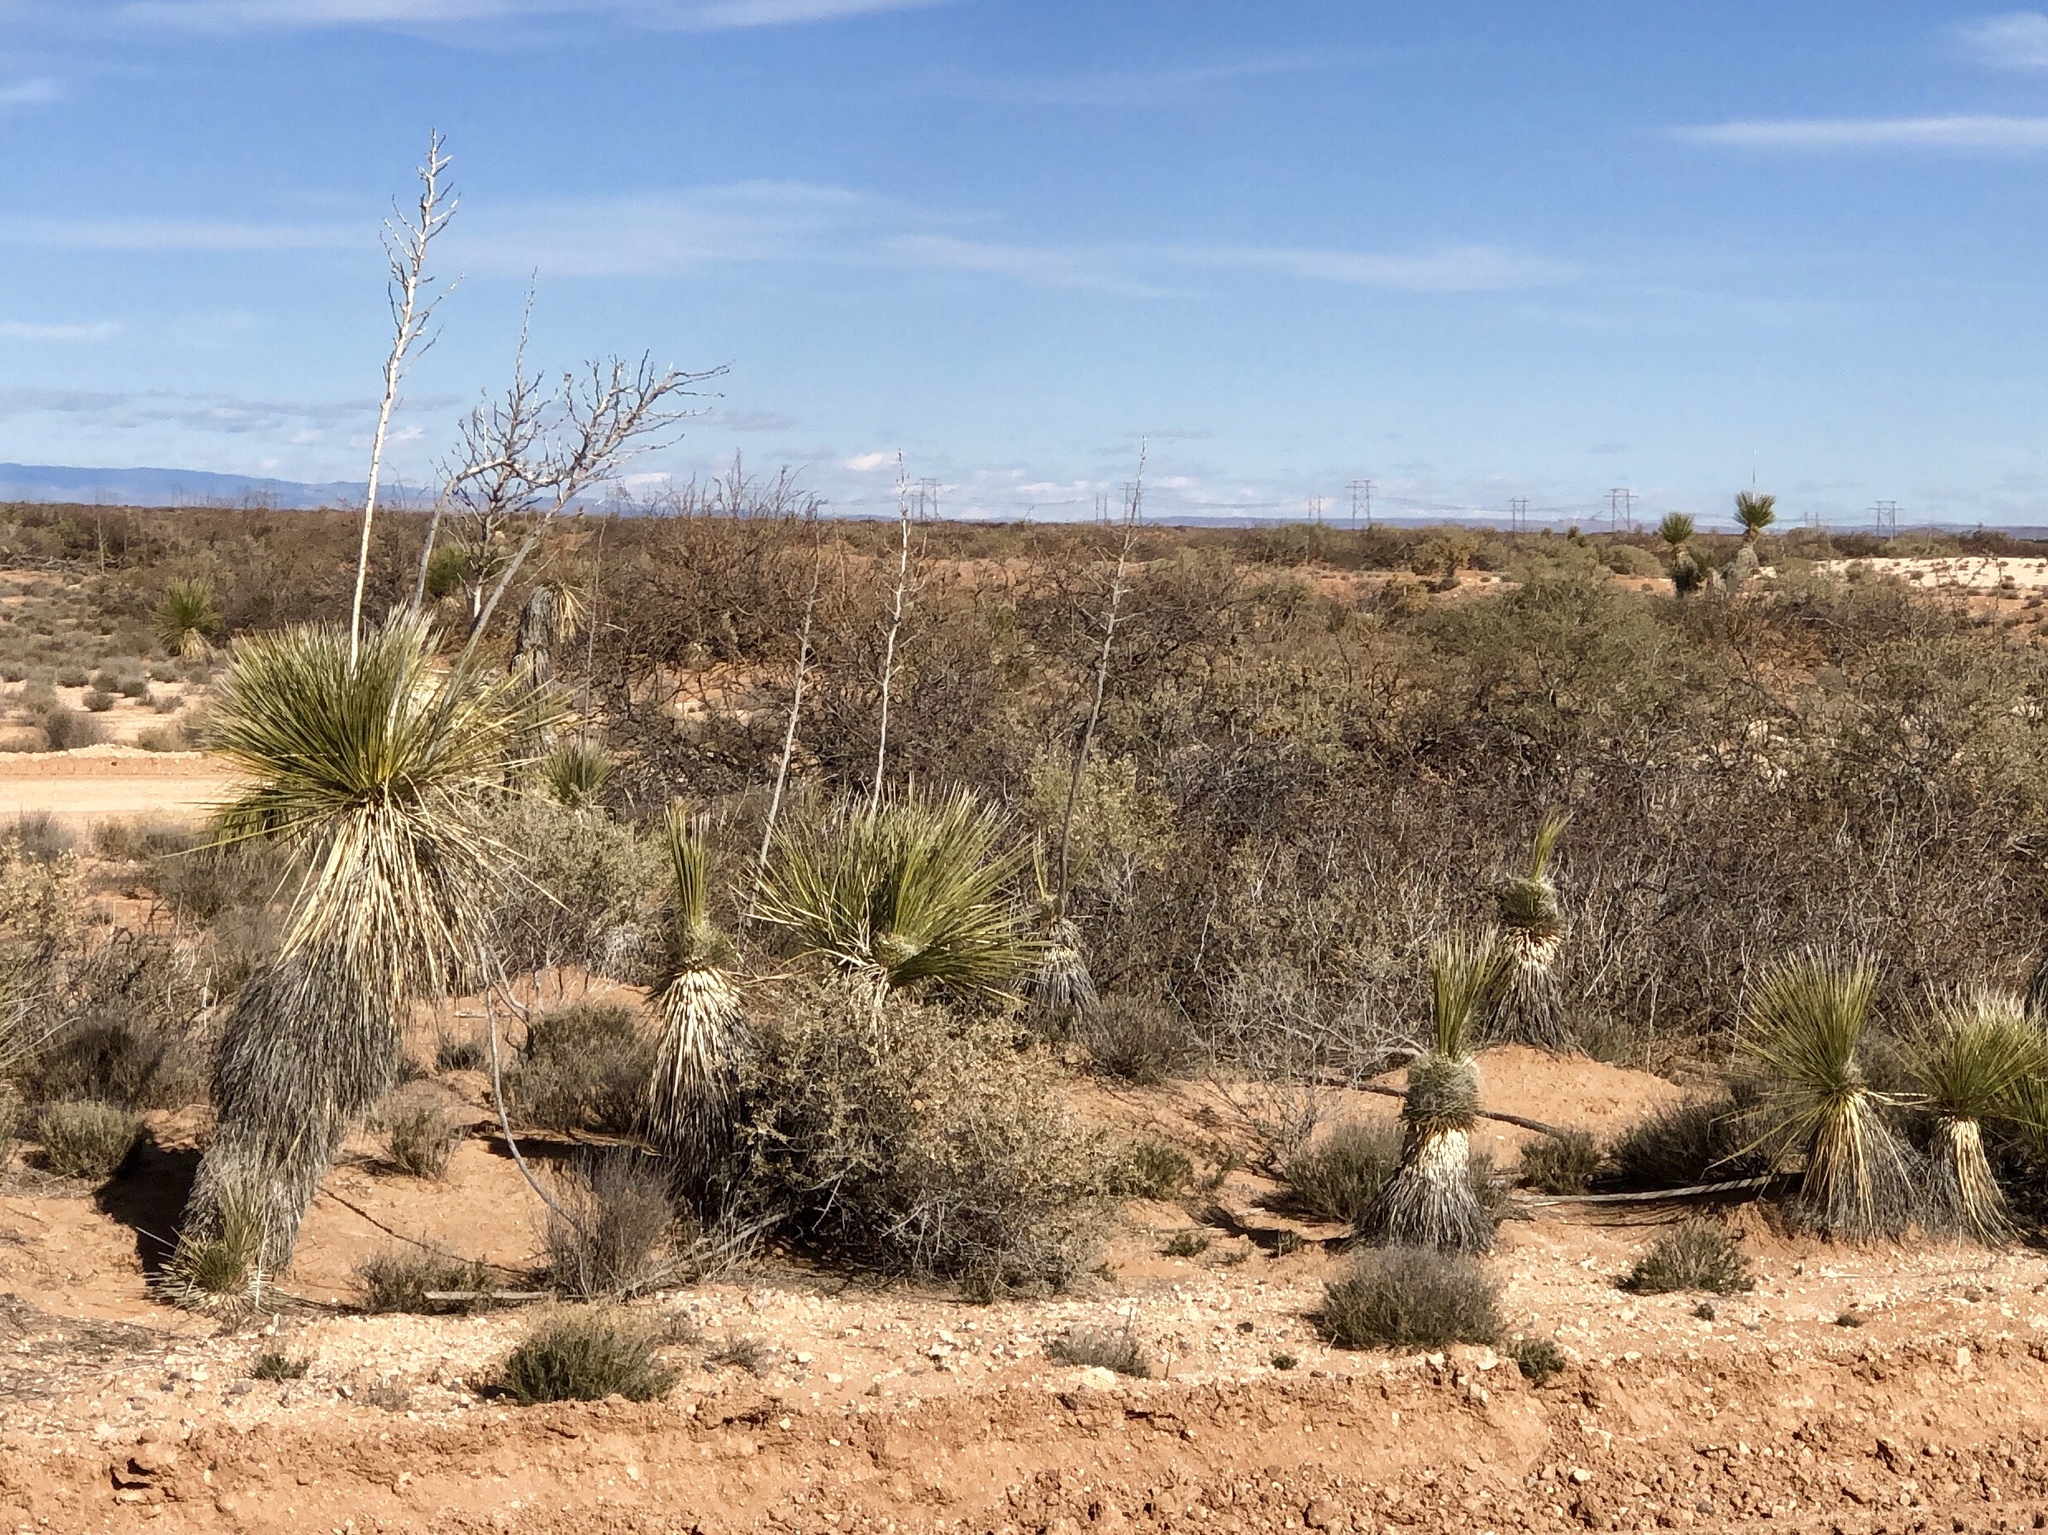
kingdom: Plantae
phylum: Tracheophyta
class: Liliopsida
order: Asparagales
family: Asparagaceae
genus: Yucca
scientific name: Yucca elata
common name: Palmella
